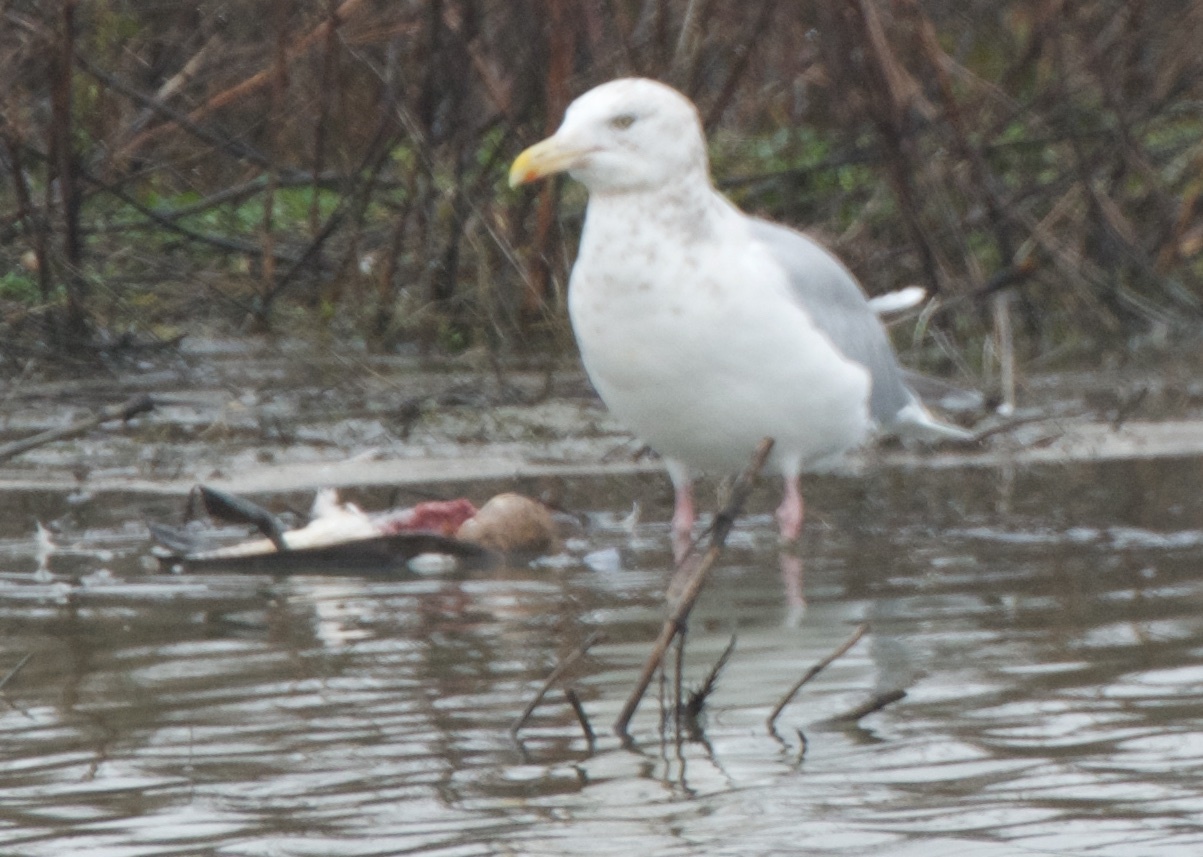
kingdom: Animalia
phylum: Chordata
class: Aves
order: Charadriiformes
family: Laridae
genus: Larus
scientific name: Larus argentatus
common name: Herring gull
